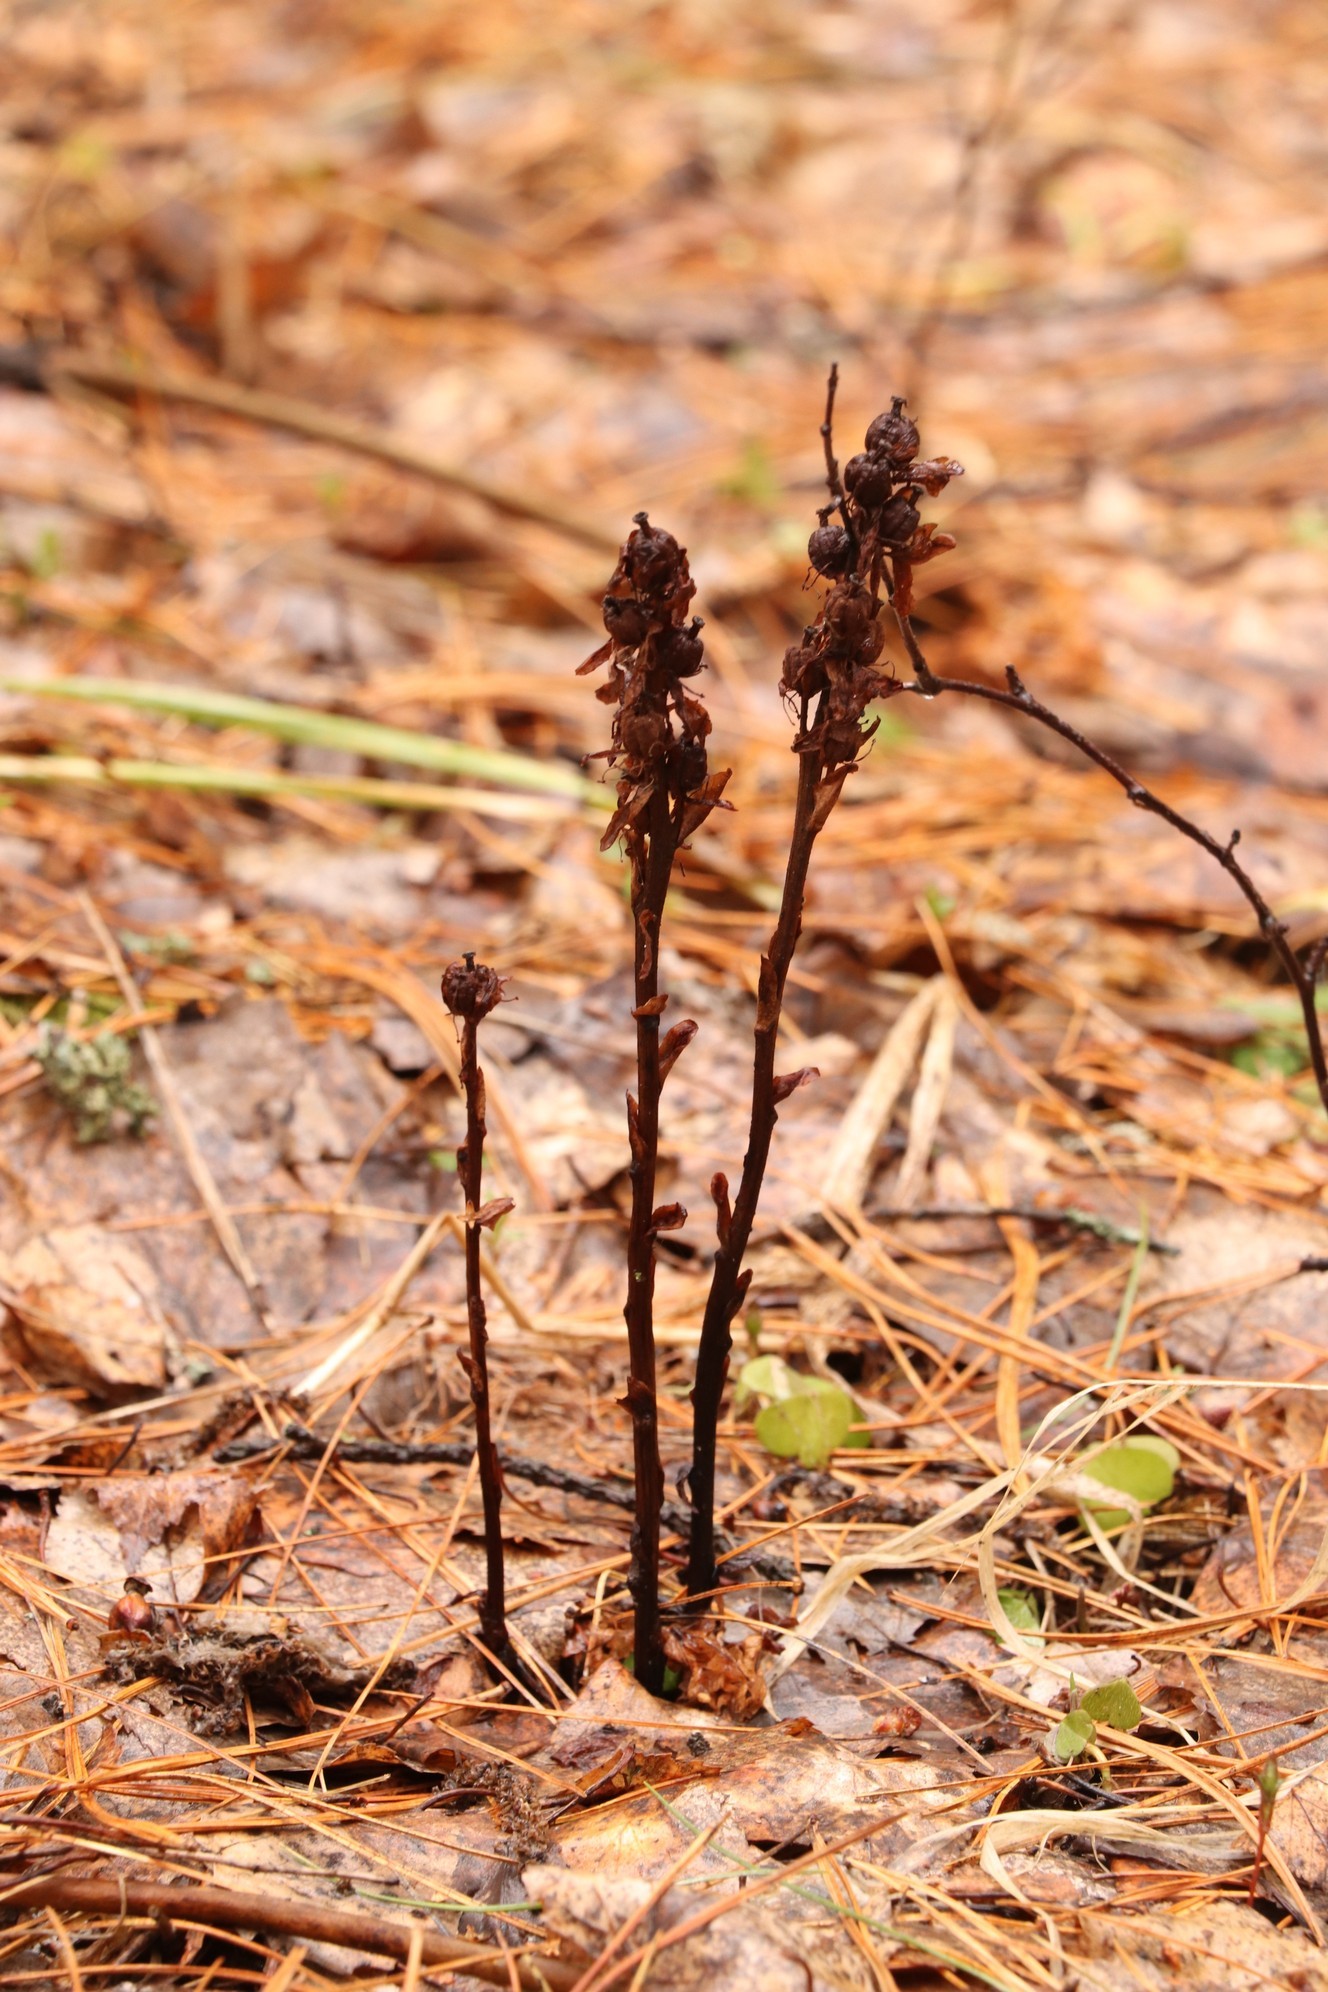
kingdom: Plantae
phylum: Tracheophyta
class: Magnoliopsida
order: Ericales
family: Ericaceae
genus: Hypopitys
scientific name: Hypopitys monotropa
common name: Yellow bird's-nest
